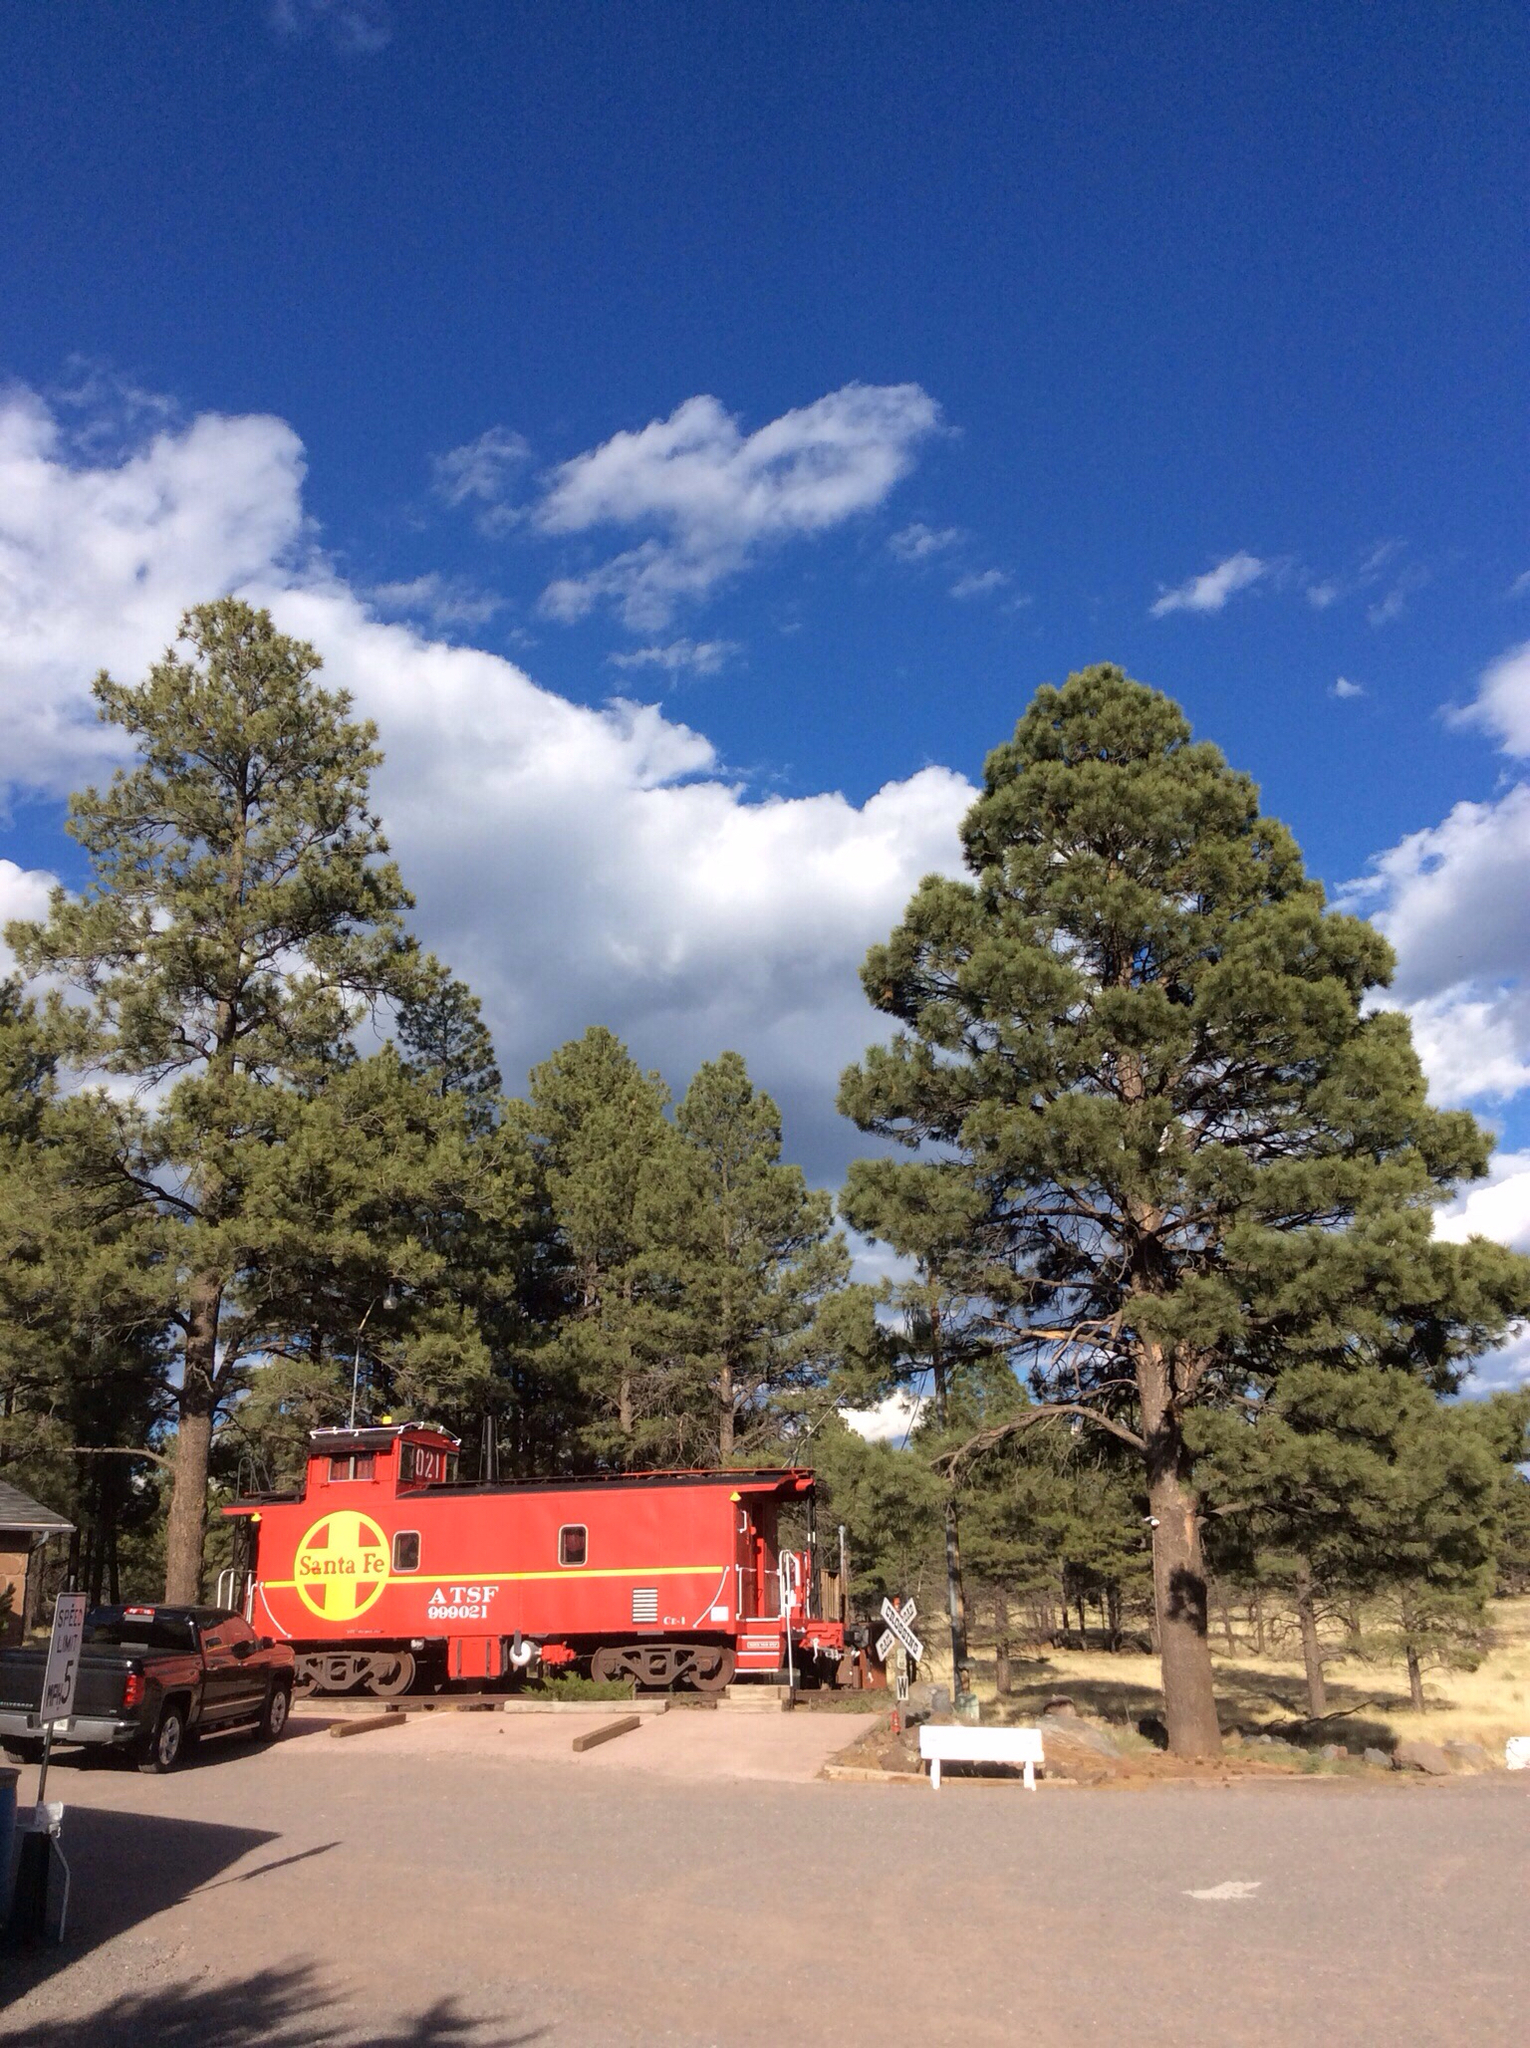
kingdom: Plantae
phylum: Tracheophyta
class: Pinopsida
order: Pinales
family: Pinaceae
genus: Pinus
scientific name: Pinus ponderosa
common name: Western yellow-pine
